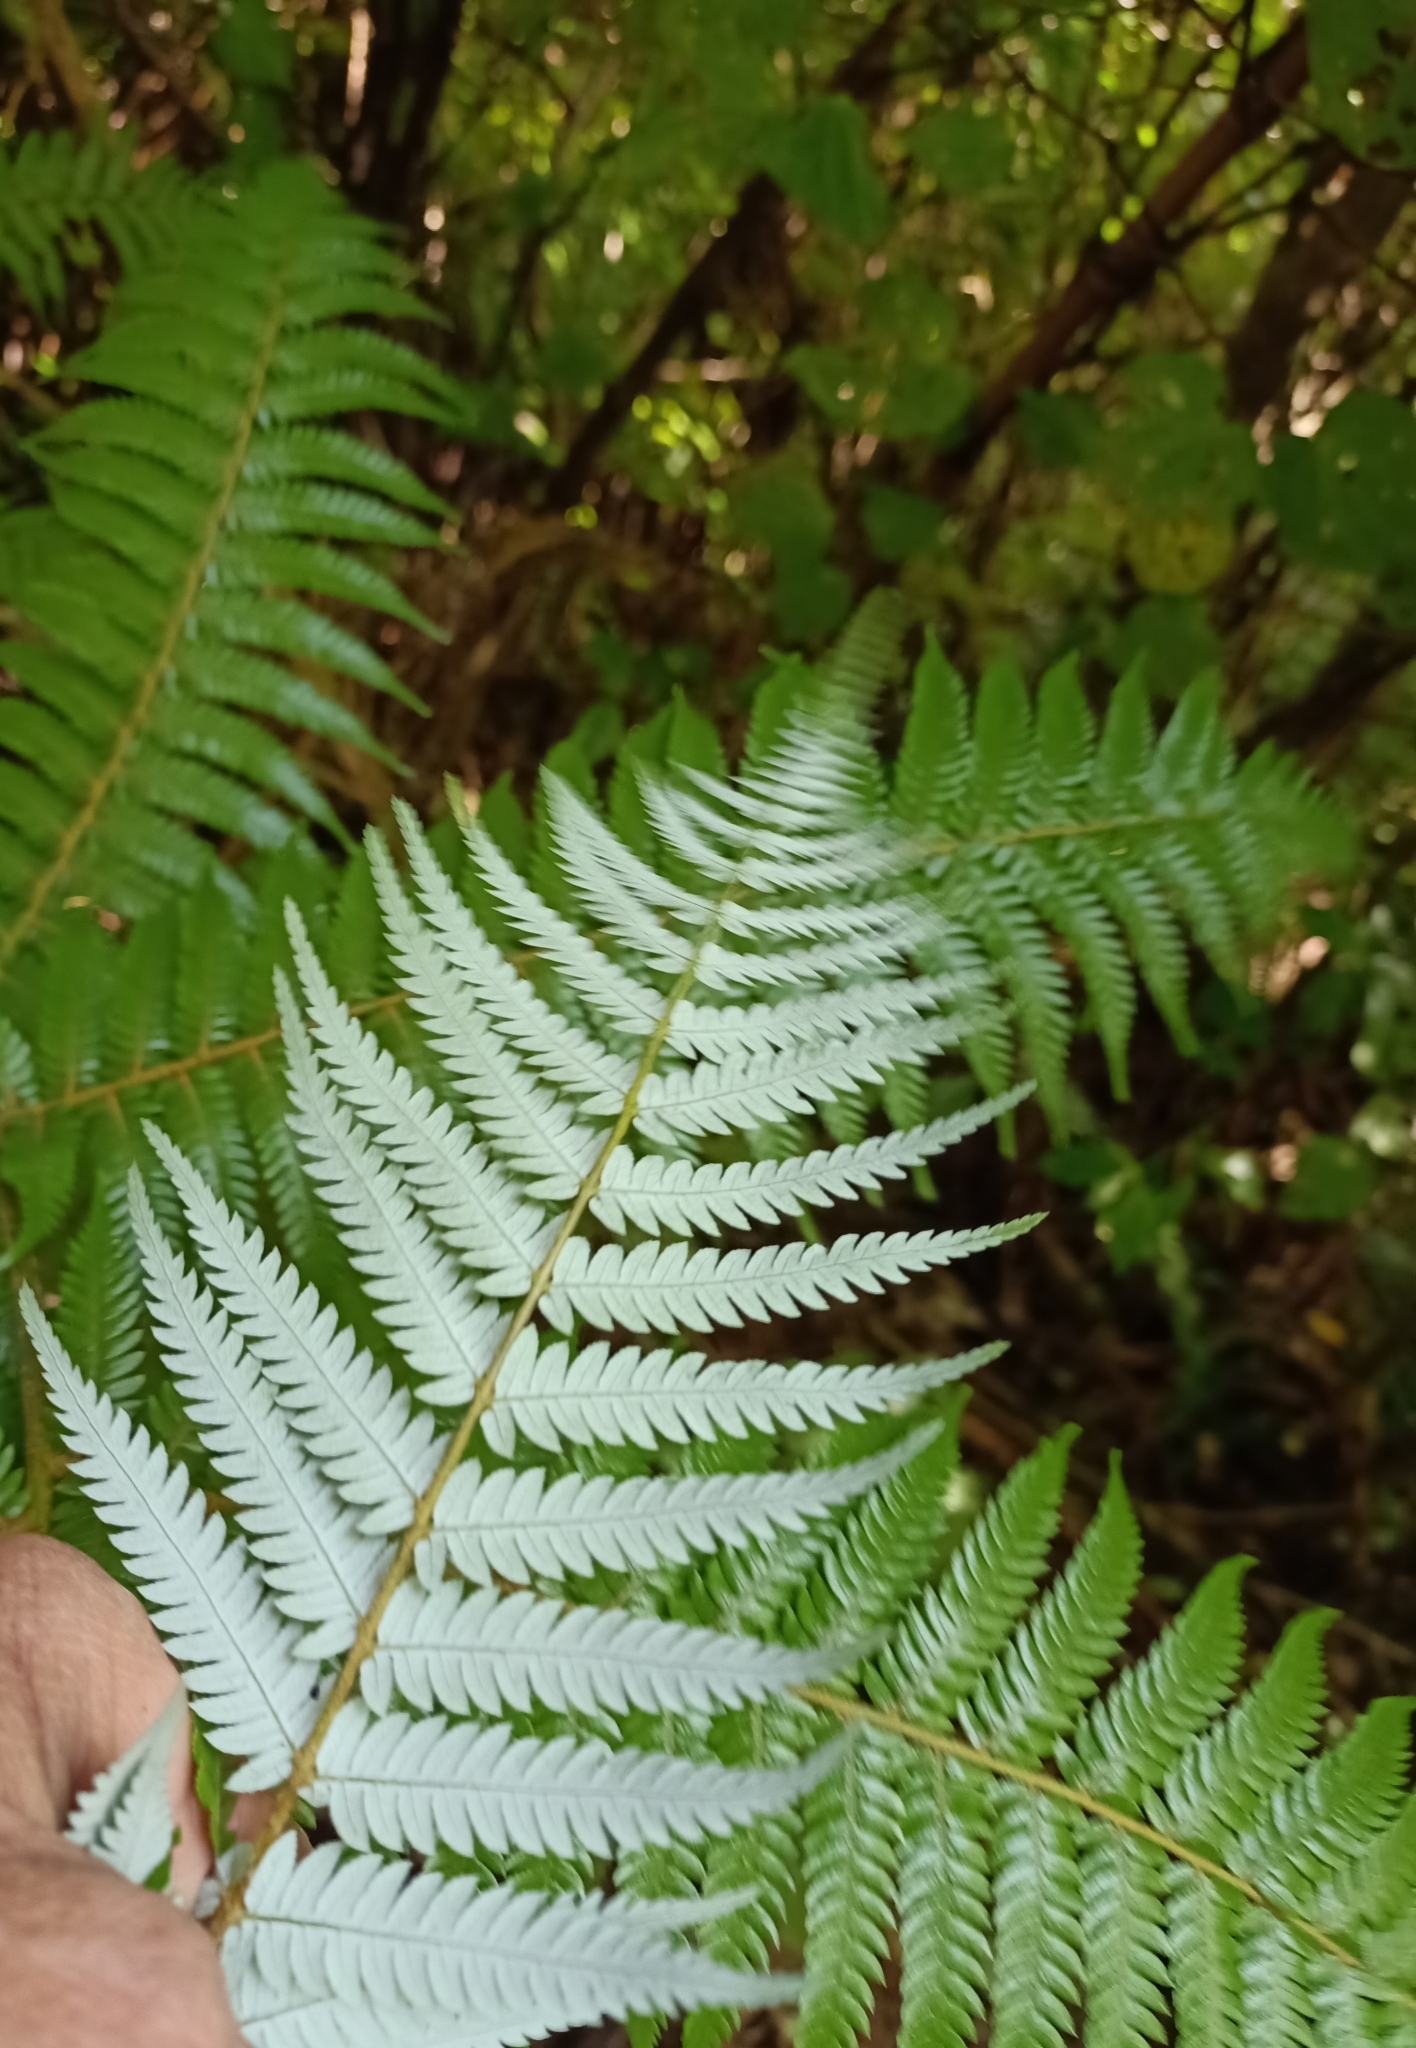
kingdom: Plantae
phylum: Tracheophyta
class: Polypodiopsida
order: Cyatheales
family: Cyatheaceae
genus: Alsophila
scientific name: Alsophila dealbata
